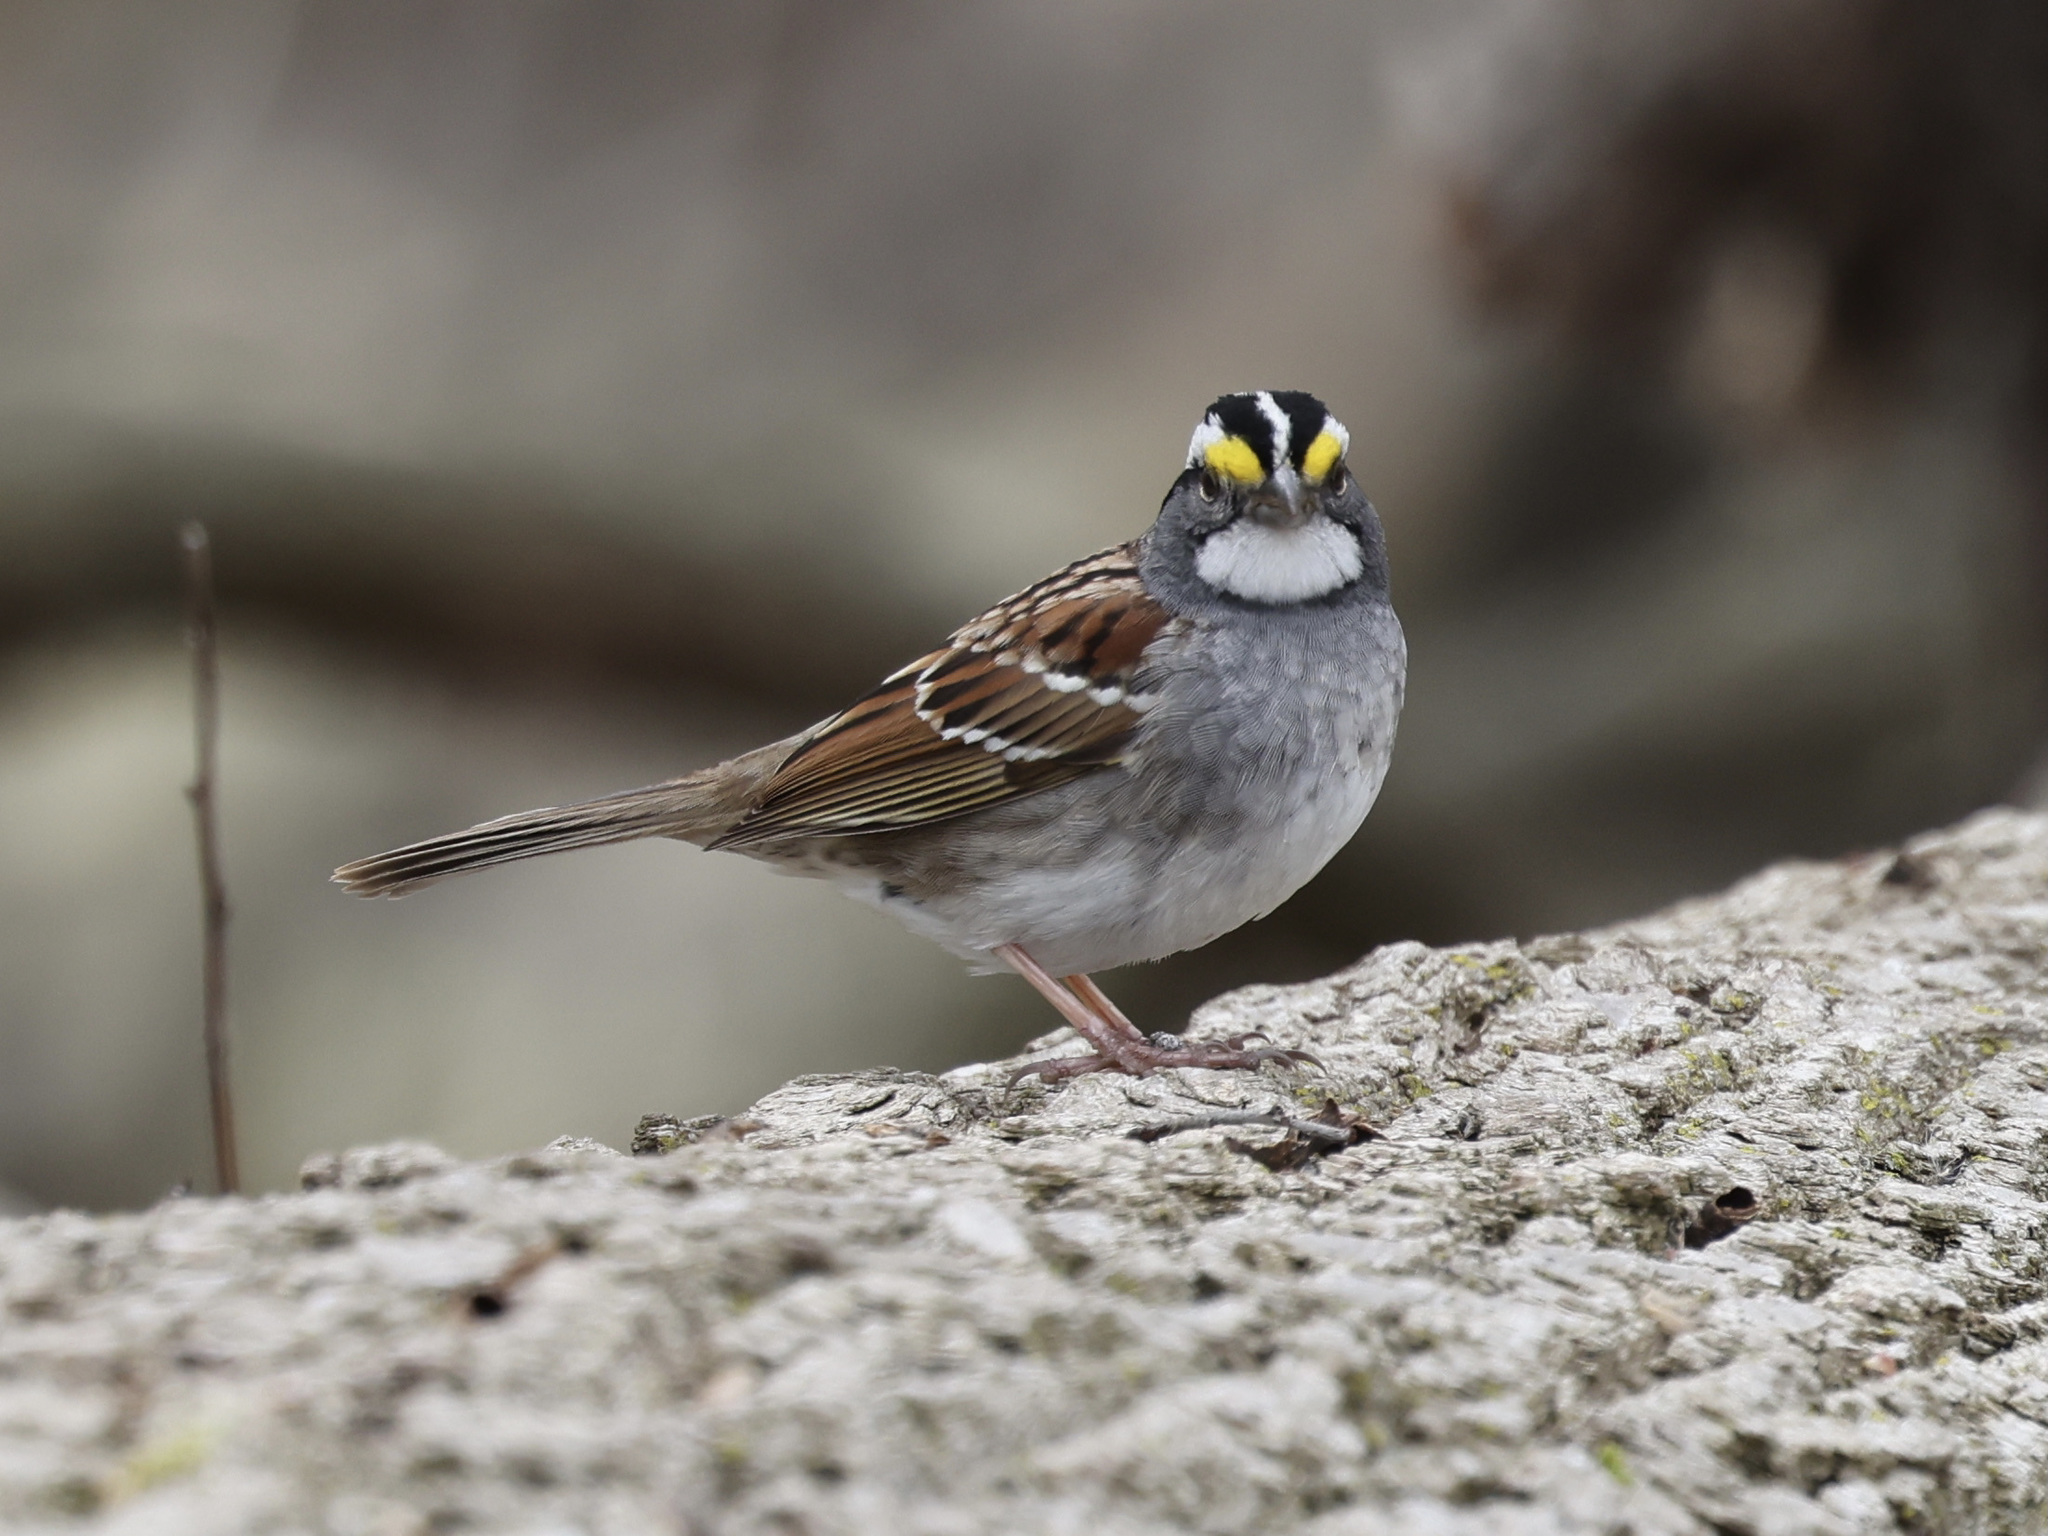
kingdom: Animalia
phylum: Chordata
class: Aves
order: Passeriformes
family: Passerellidae
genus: Zonotrichia
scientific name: Zonotrichia albicollis
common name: White-throated sparrow
